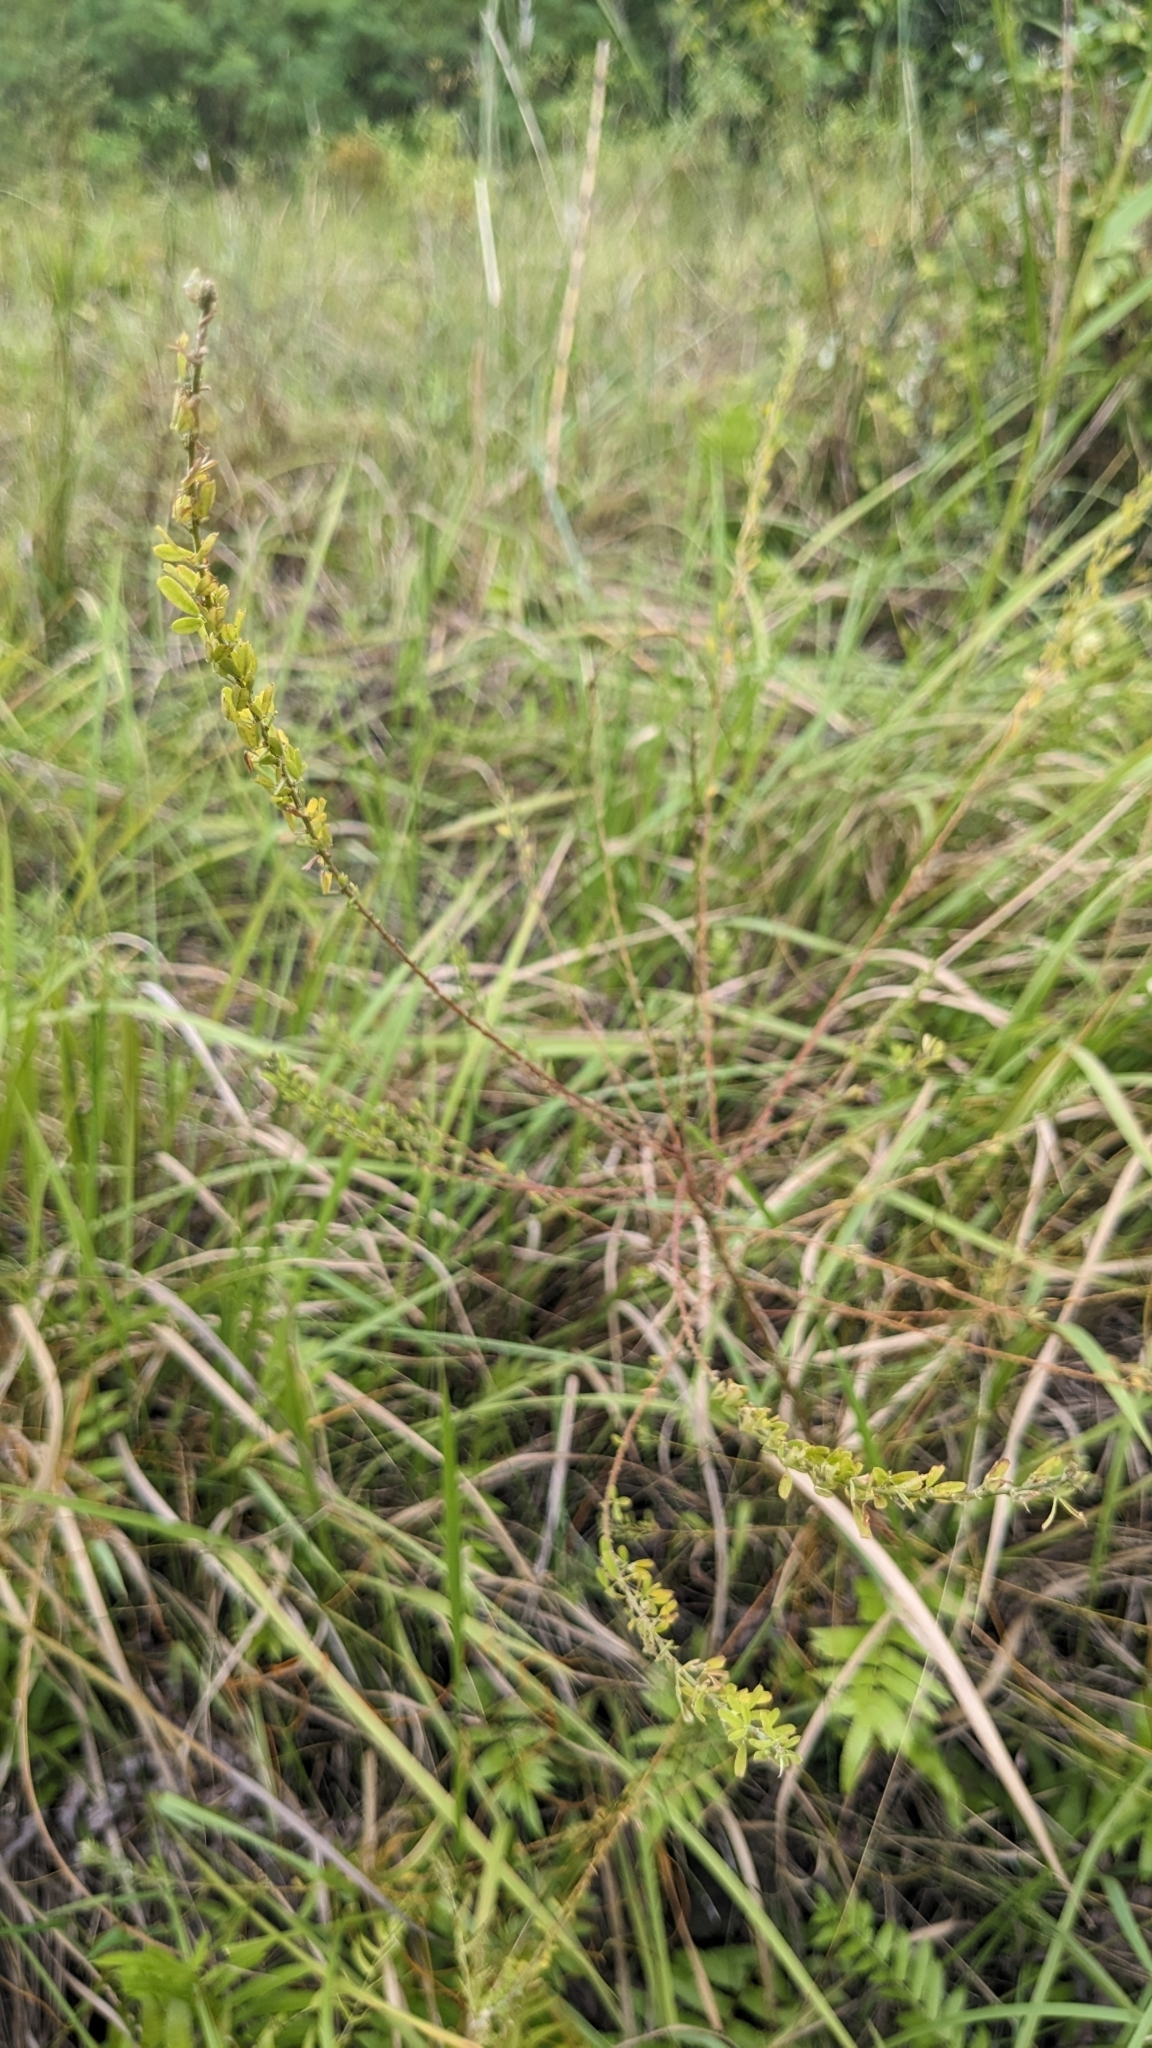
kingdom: Plantae
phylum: Tracheophyta
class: Magnoliopsida
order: Fabales
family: Fabaceae
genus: Lespedeza
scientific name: Lespedeza cuneata
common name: Chinese bush-clover
